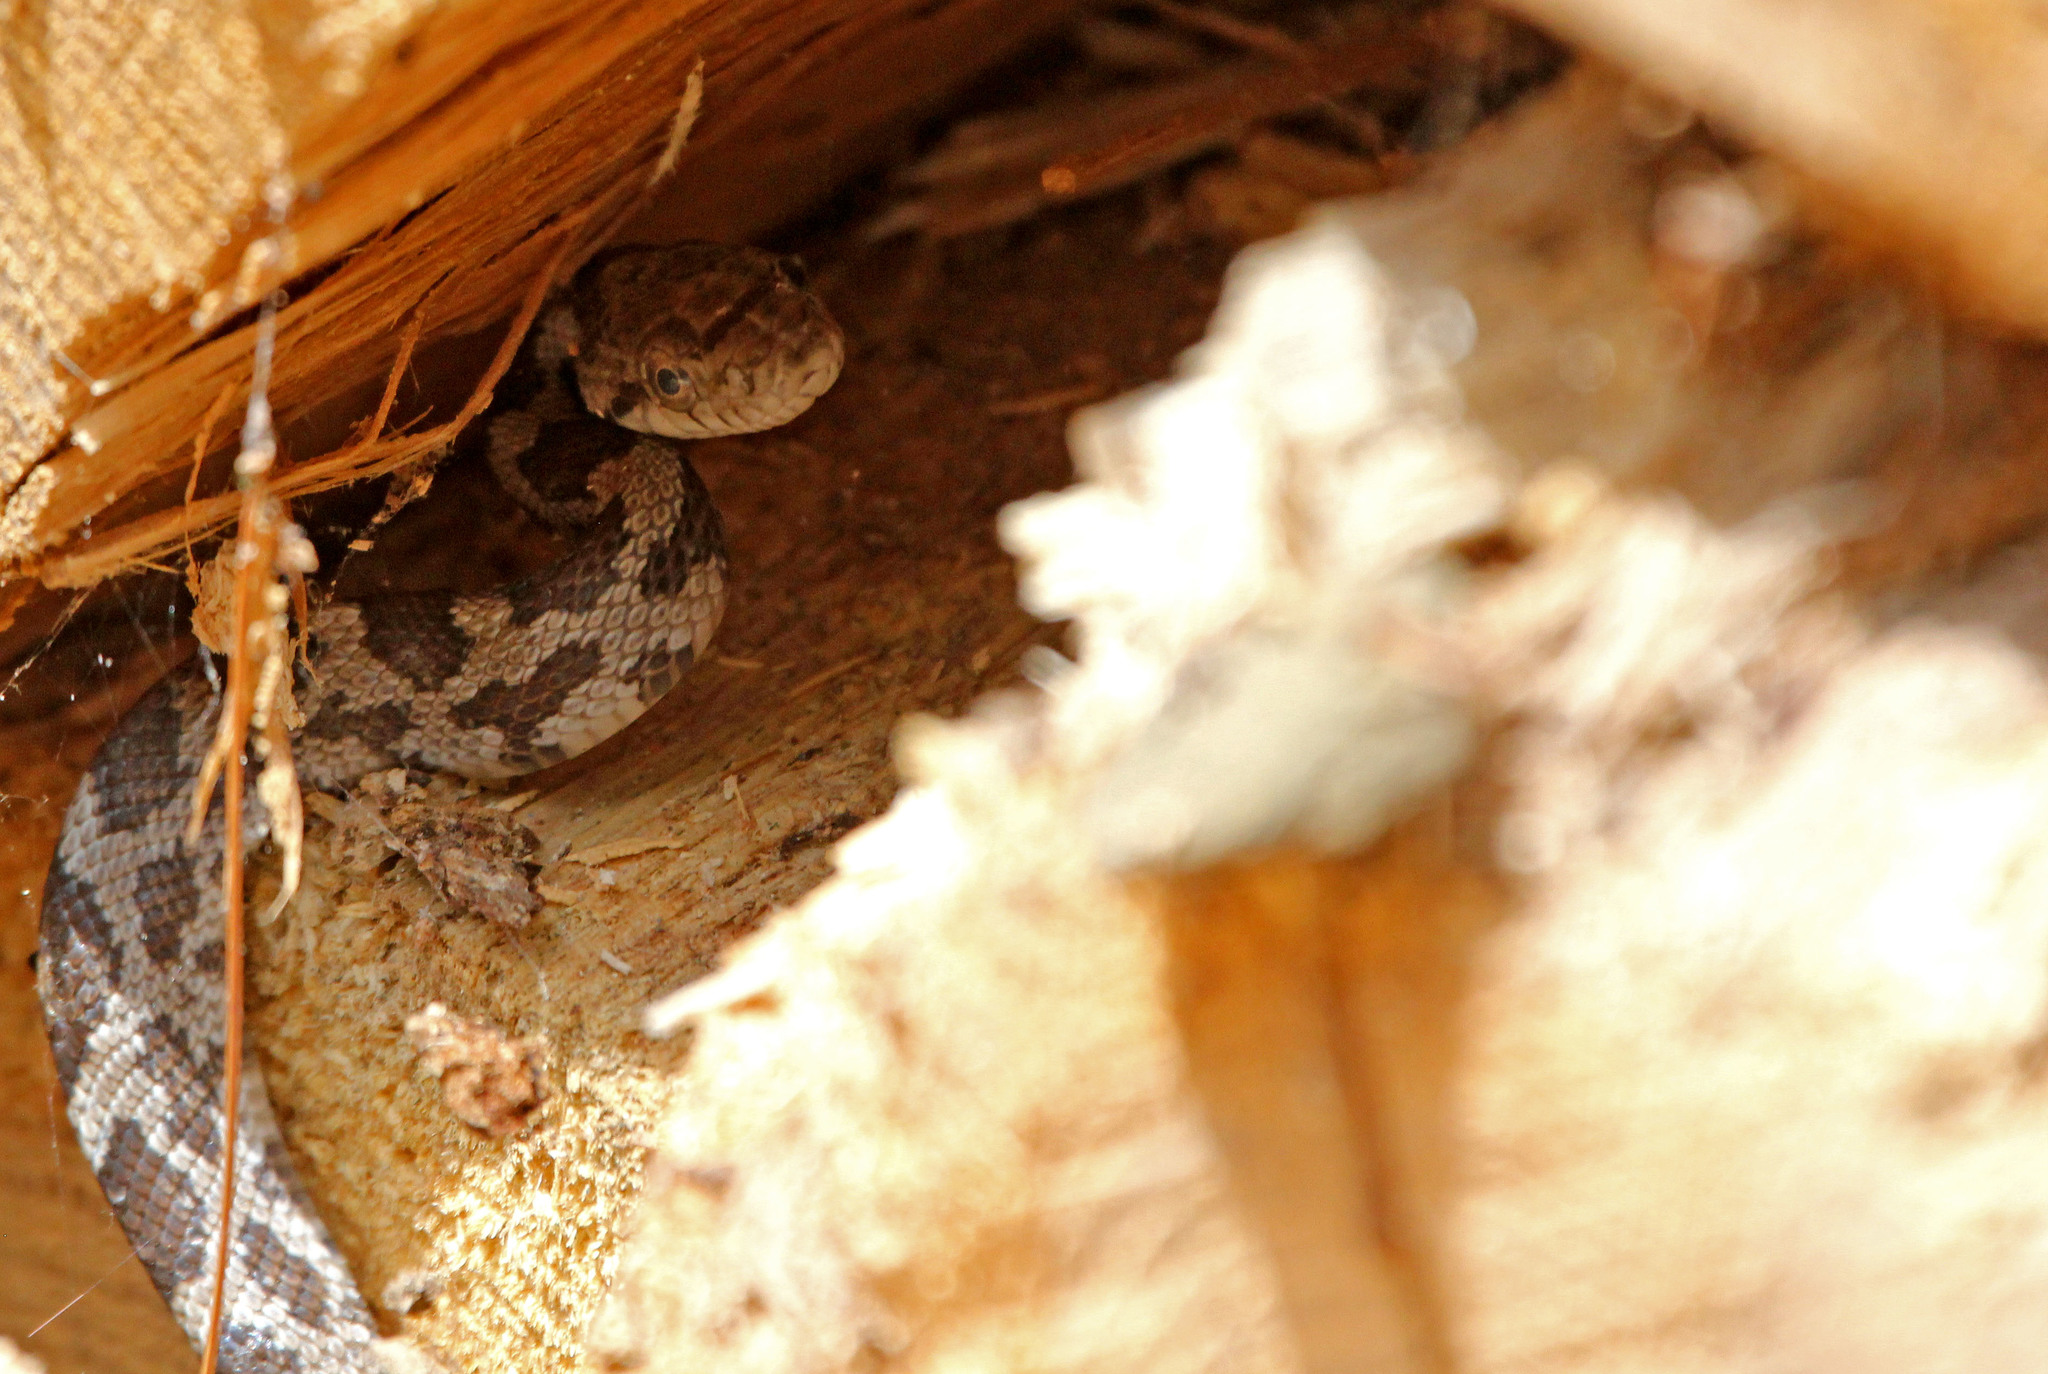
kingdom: Animalia
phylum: Chordata
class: Squamata
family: Colubridae
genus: Pantherophis
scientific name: Pantherophis alleghaniensis
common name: Eastern rat snake
